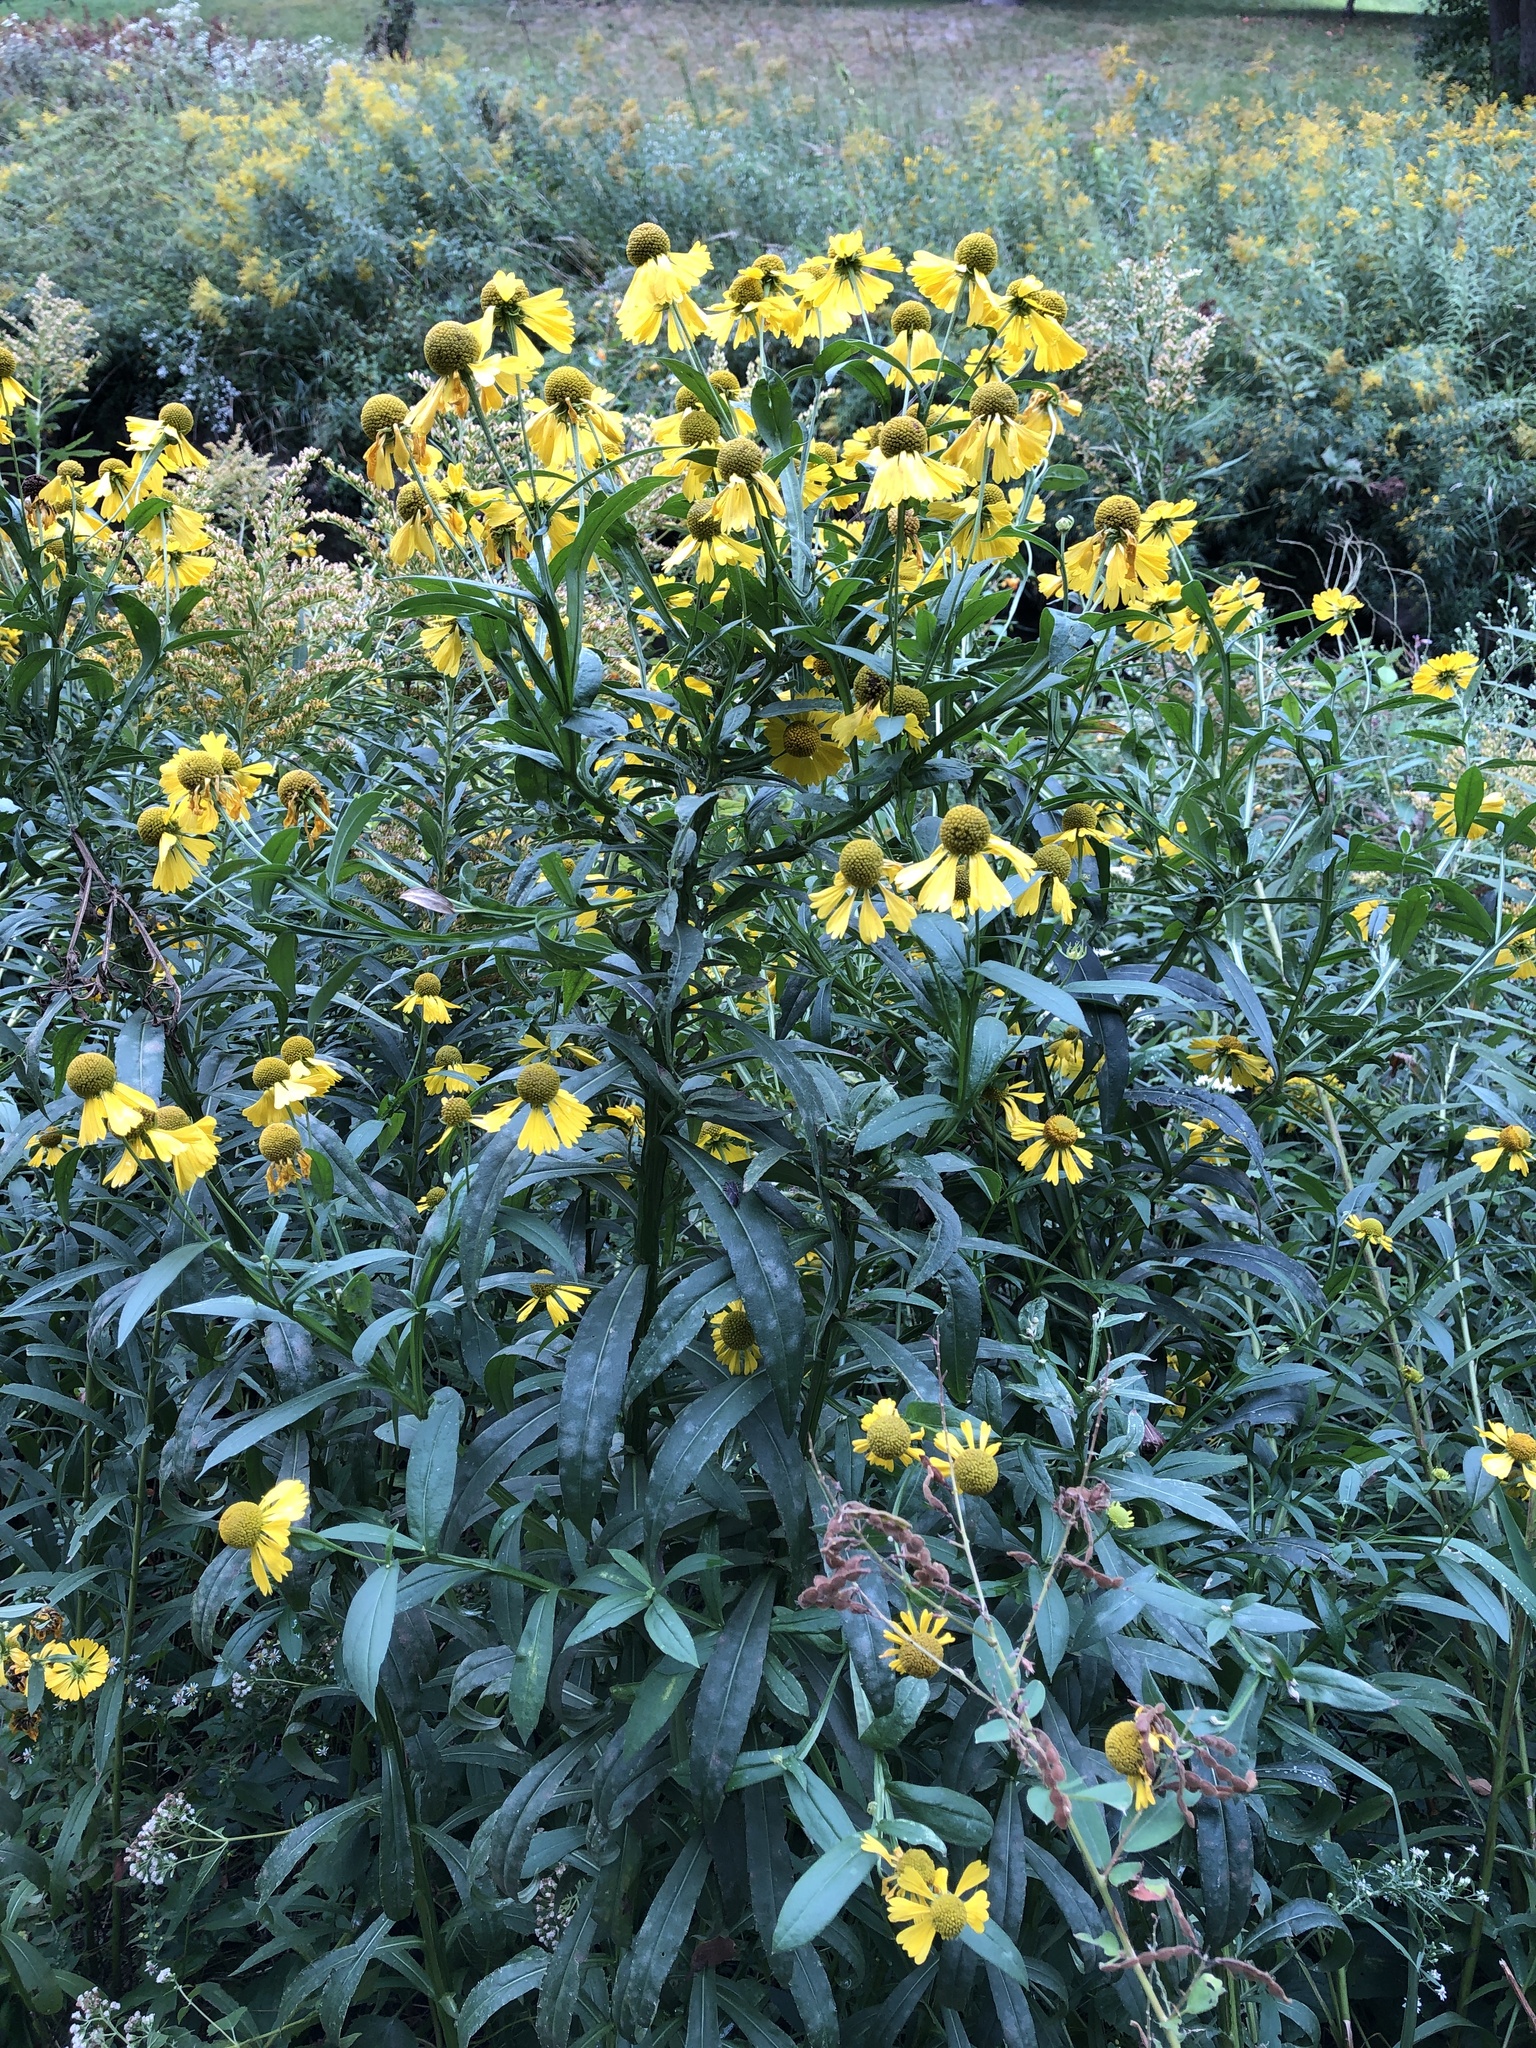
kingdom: Plantae
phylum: Tracheophyta
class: Magnoliopsida
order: Asterales
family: Asteraceae
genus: Helenium
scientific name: Helenium autumnale
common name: Sneezeweed
